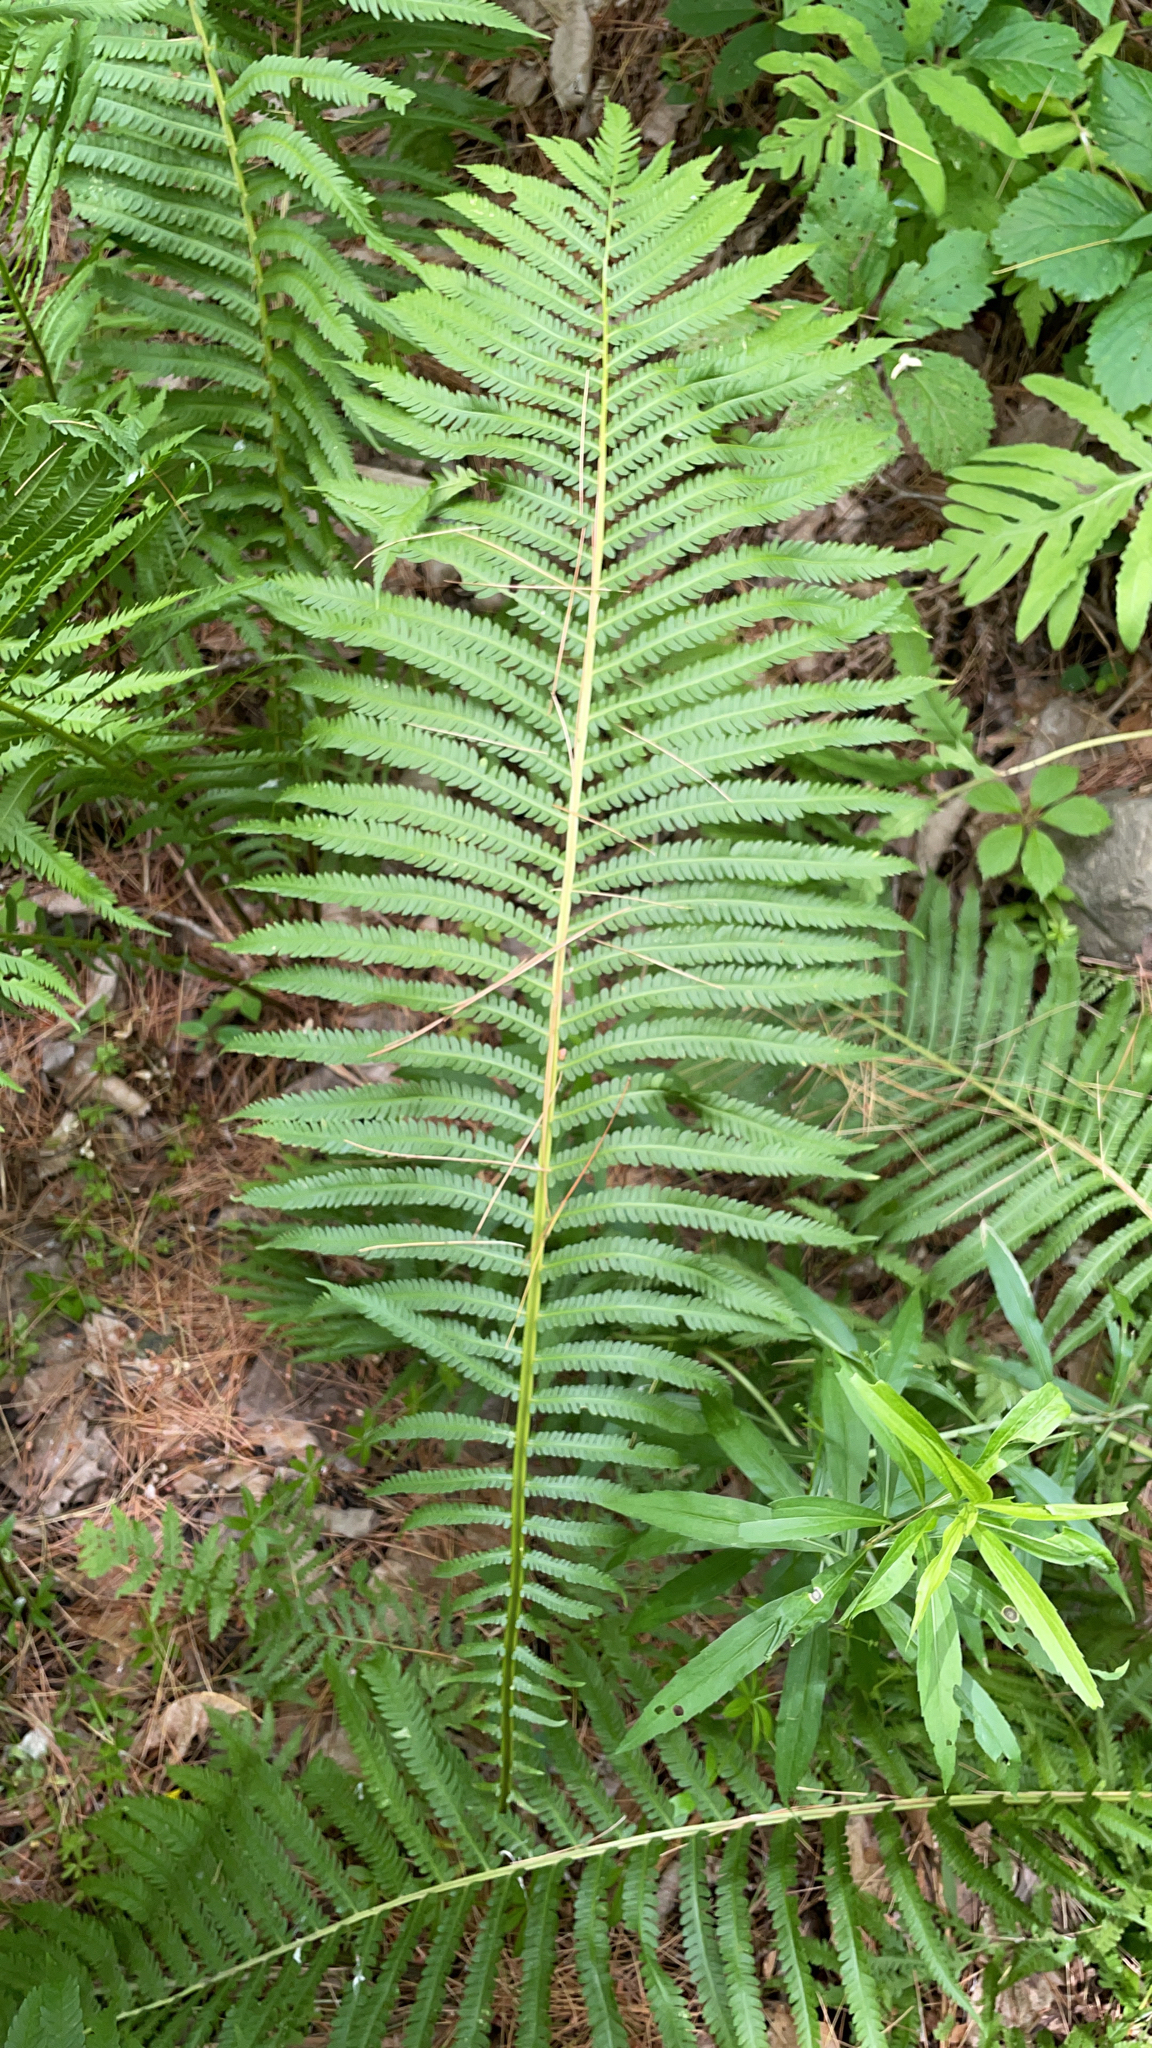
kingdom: Plantae
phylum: Tracheophyta
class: Polypodiopsida
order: Polypodiales
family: Onocleaceae
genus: Matteuccia
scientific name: Matteuccia struthiopteris
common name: Ostrich fern
